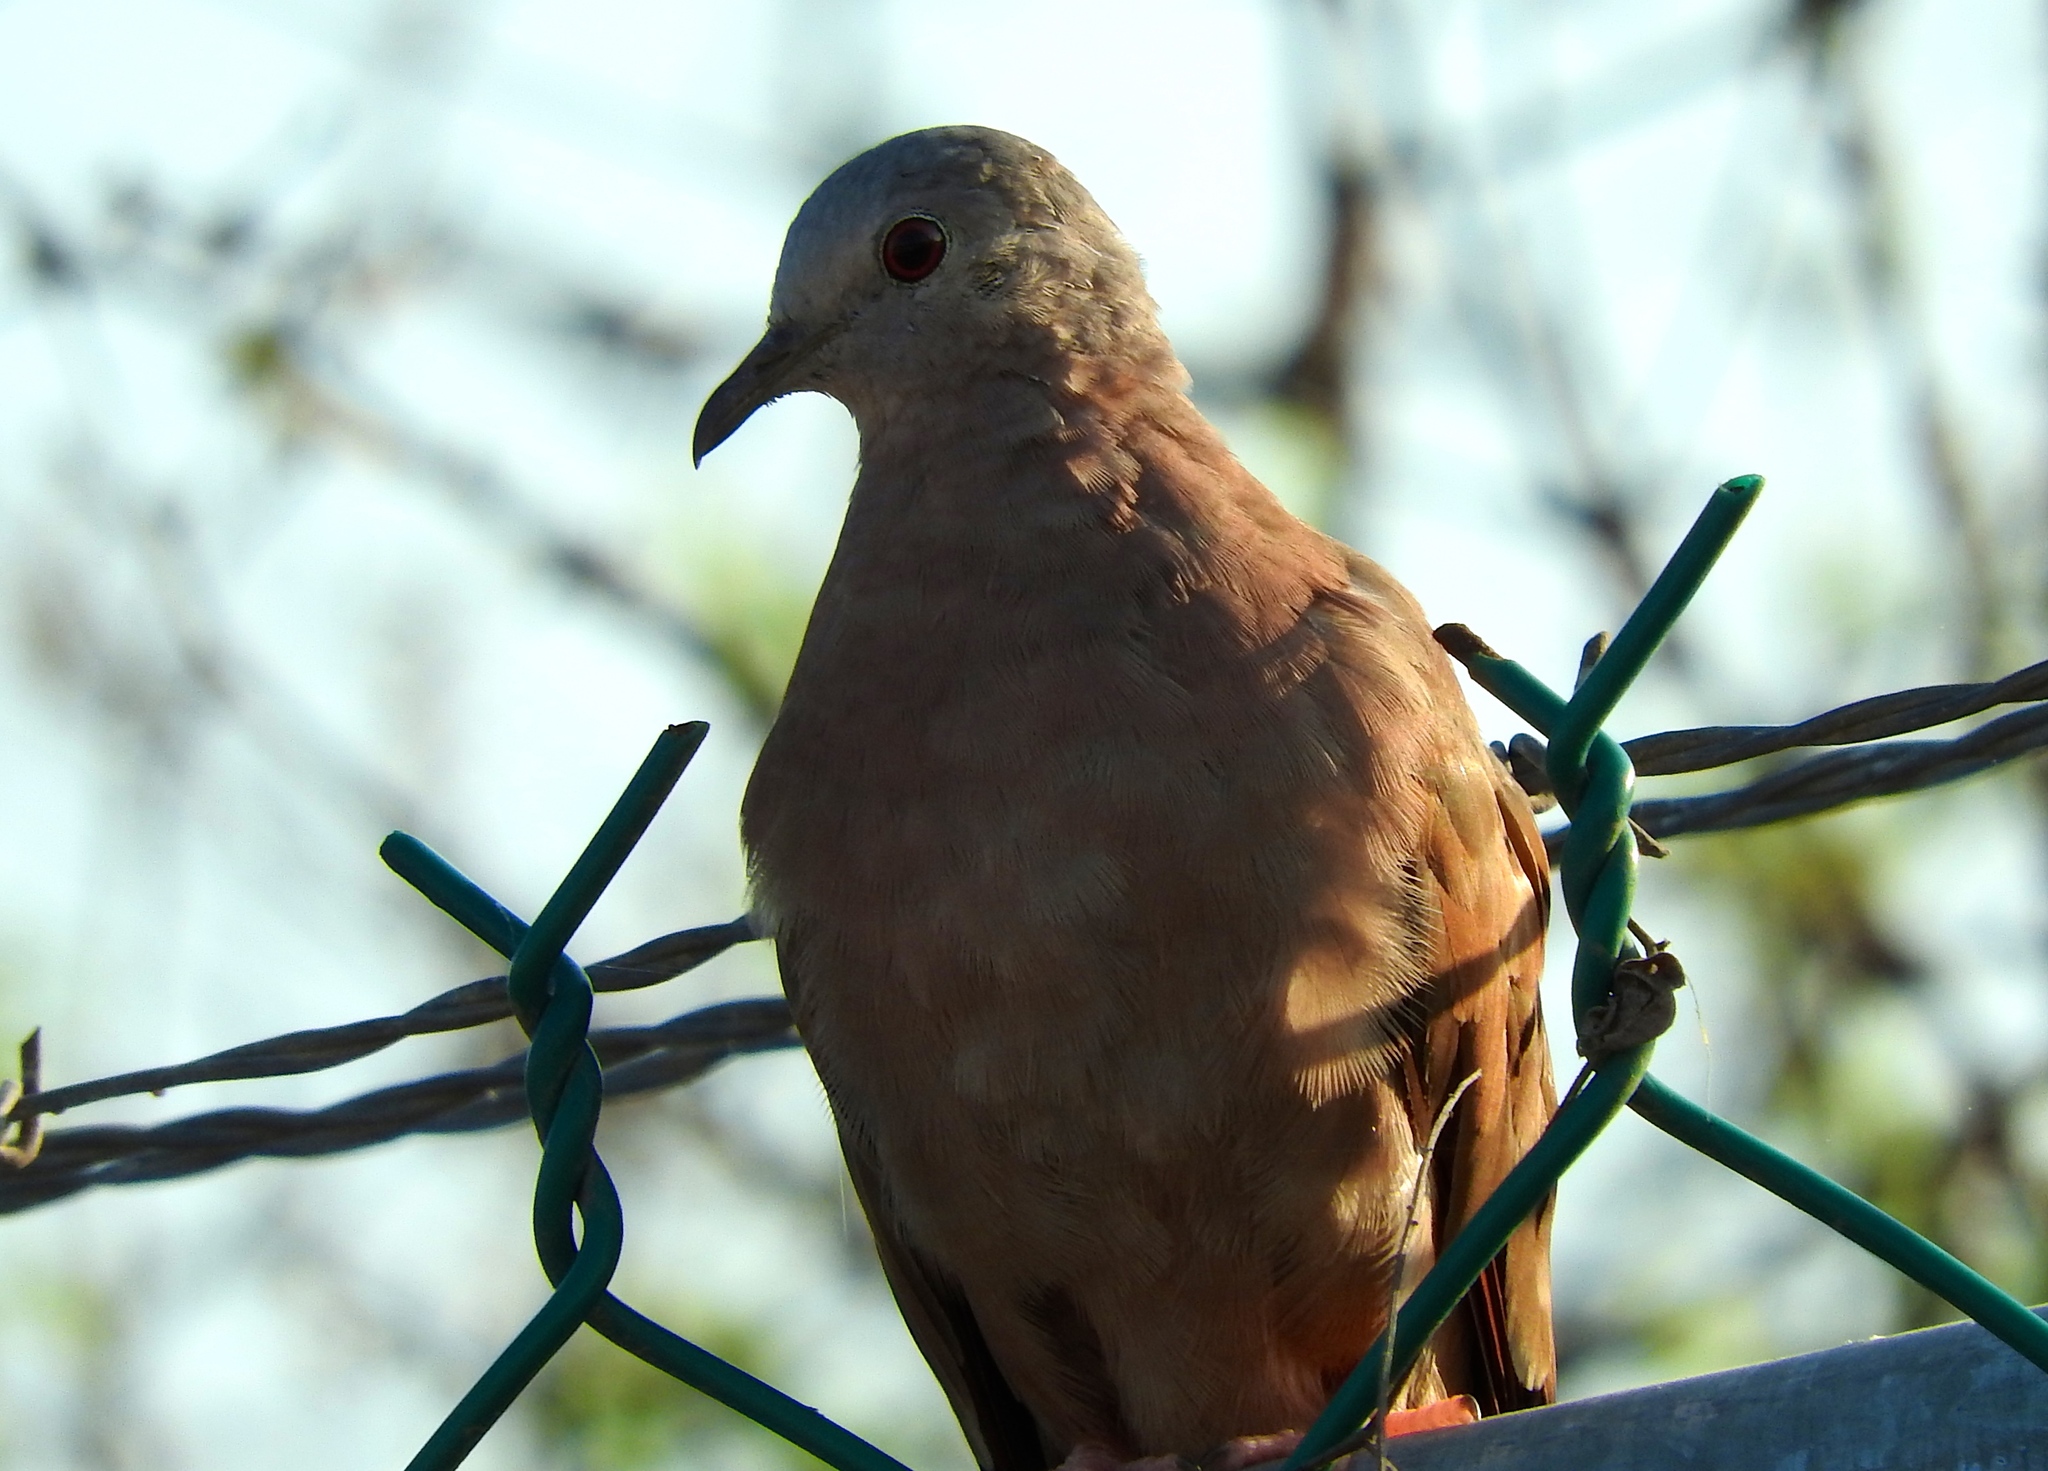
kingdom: Animalia
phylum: Chordata
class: Aves
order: Columbiformes
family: Columbidae
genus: Columbina
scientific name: Columbina talpacoti
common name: Ruddy ground dove
